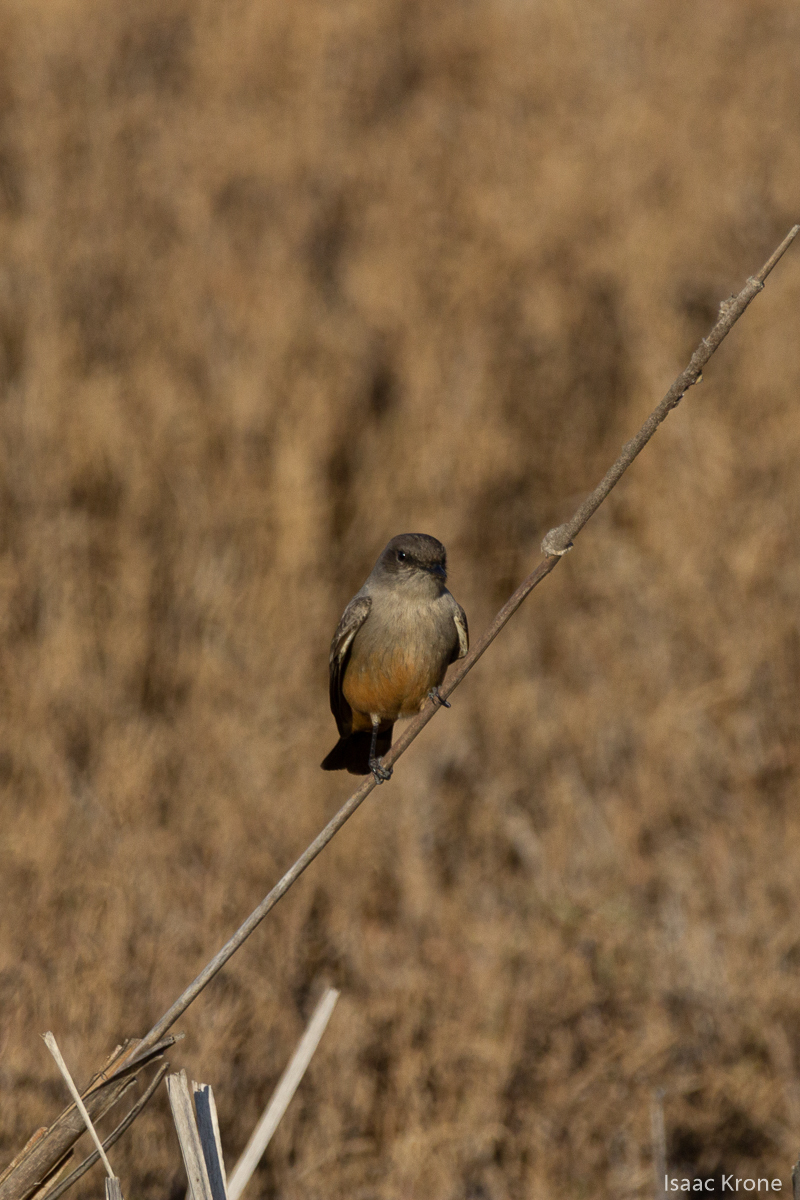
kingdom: Animalia
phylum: Chordata
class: Aves
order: Passeriformes
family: Tyrannidae
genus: Sayornis
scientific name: Sayornis saya
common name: Say's phoebe
